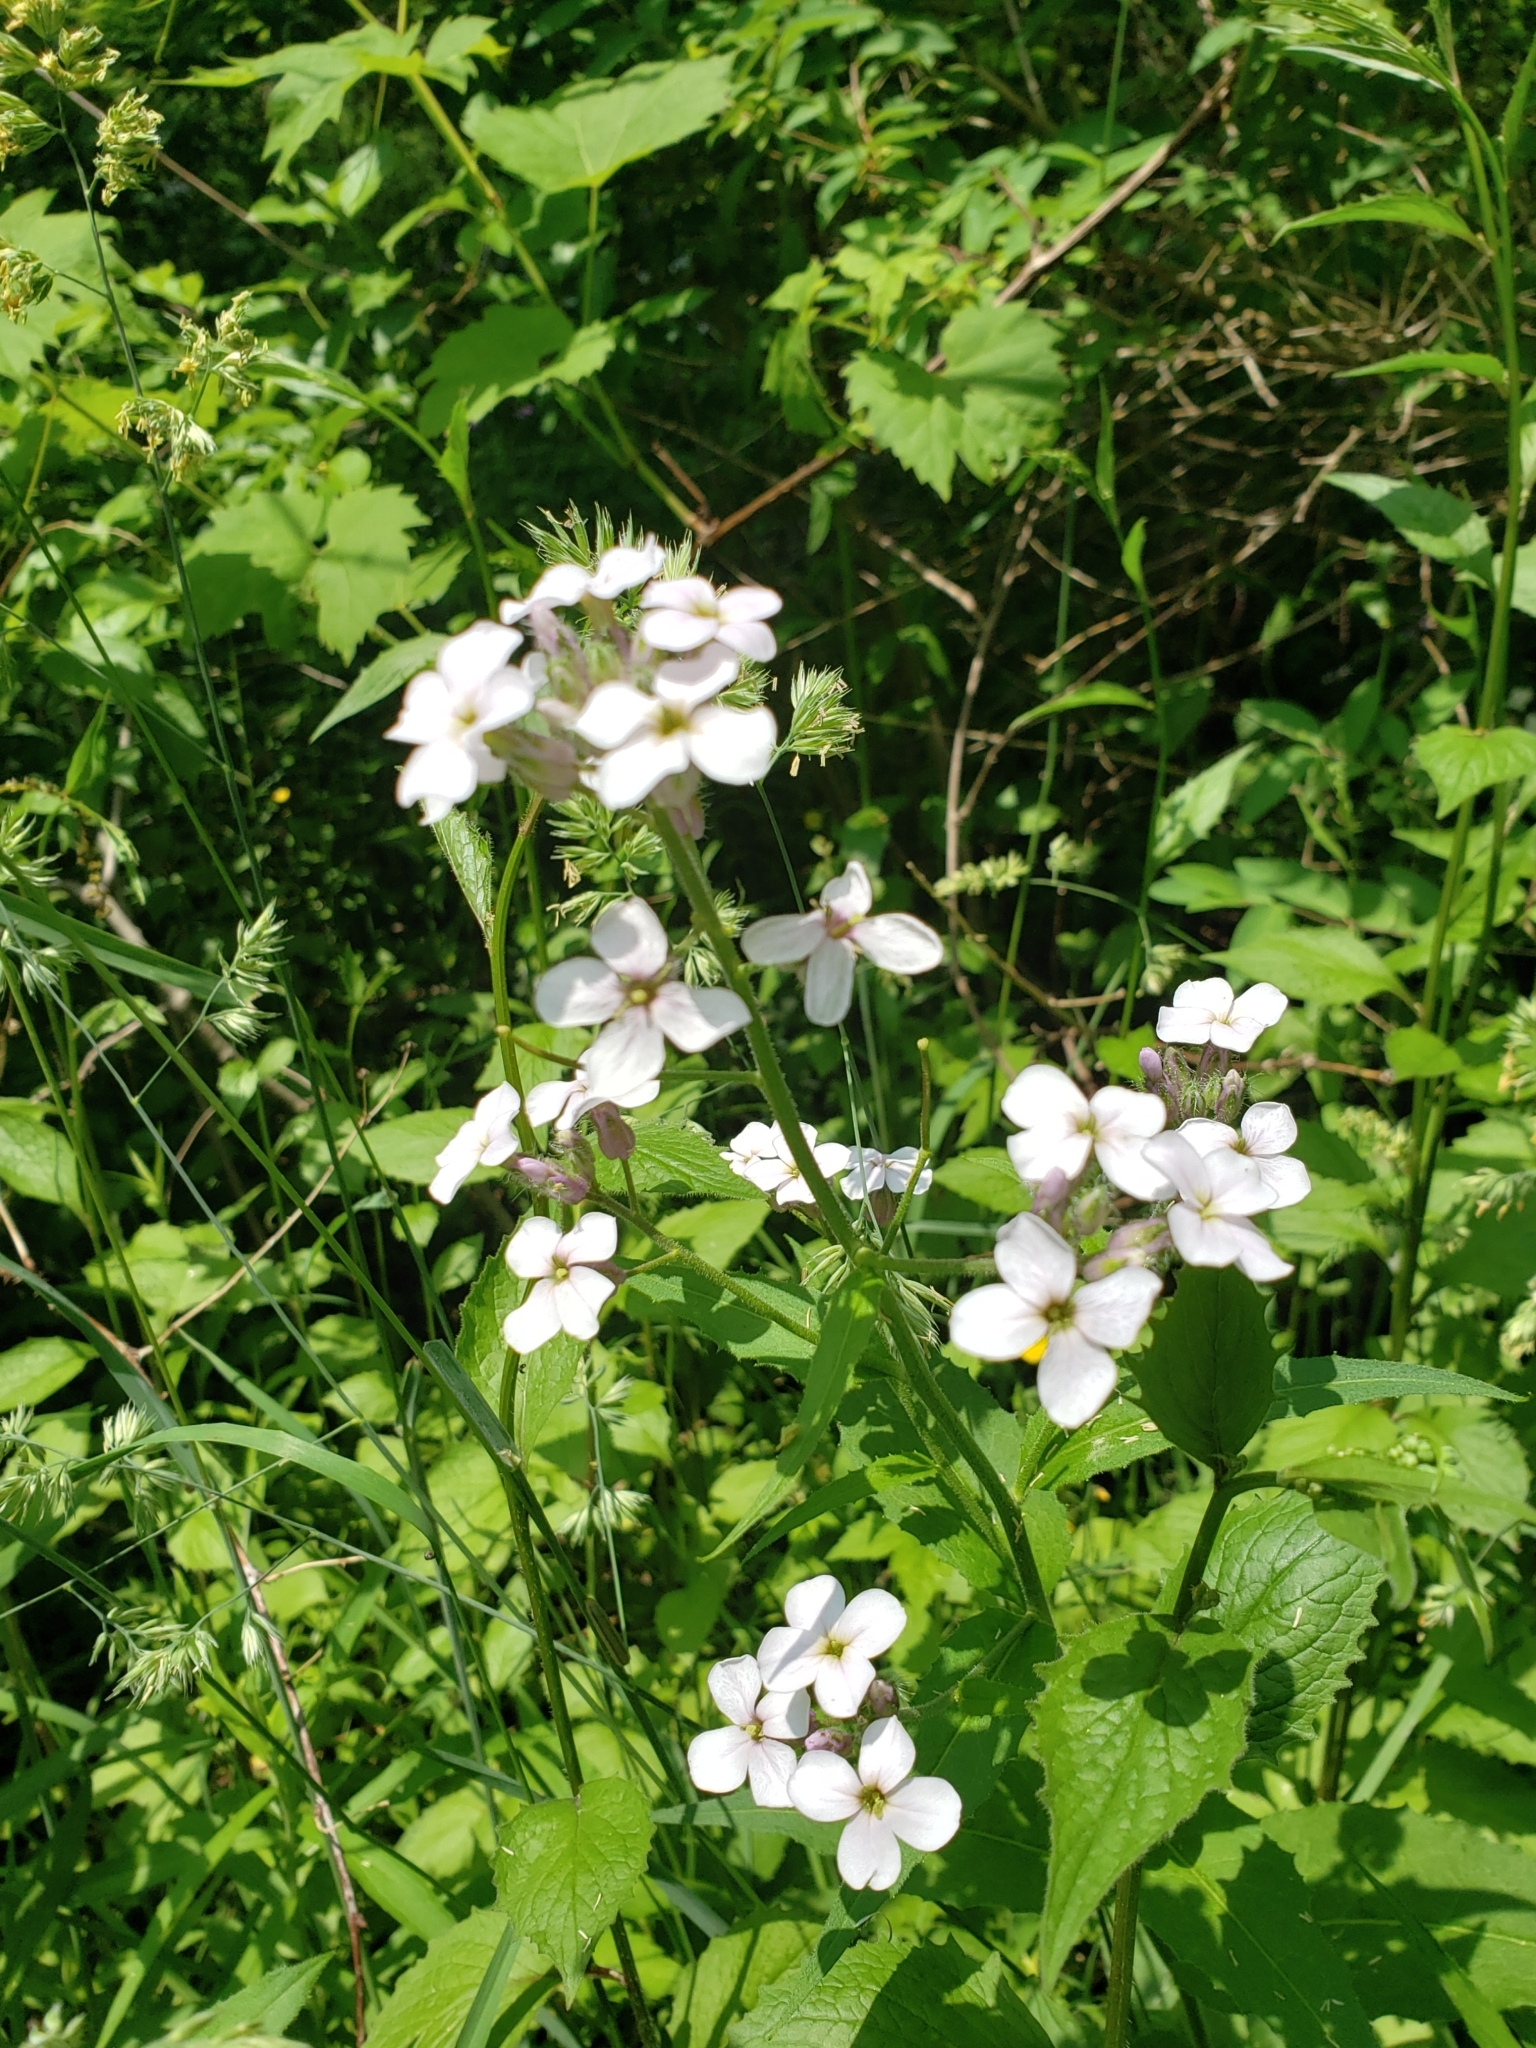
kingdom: Plantae
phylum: Tracheophyta
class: Magnoliopsida
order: Brassicales
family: Brassicaceae
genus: Hesperis
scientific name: Hesperis matronalis
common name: Dame's-violet
